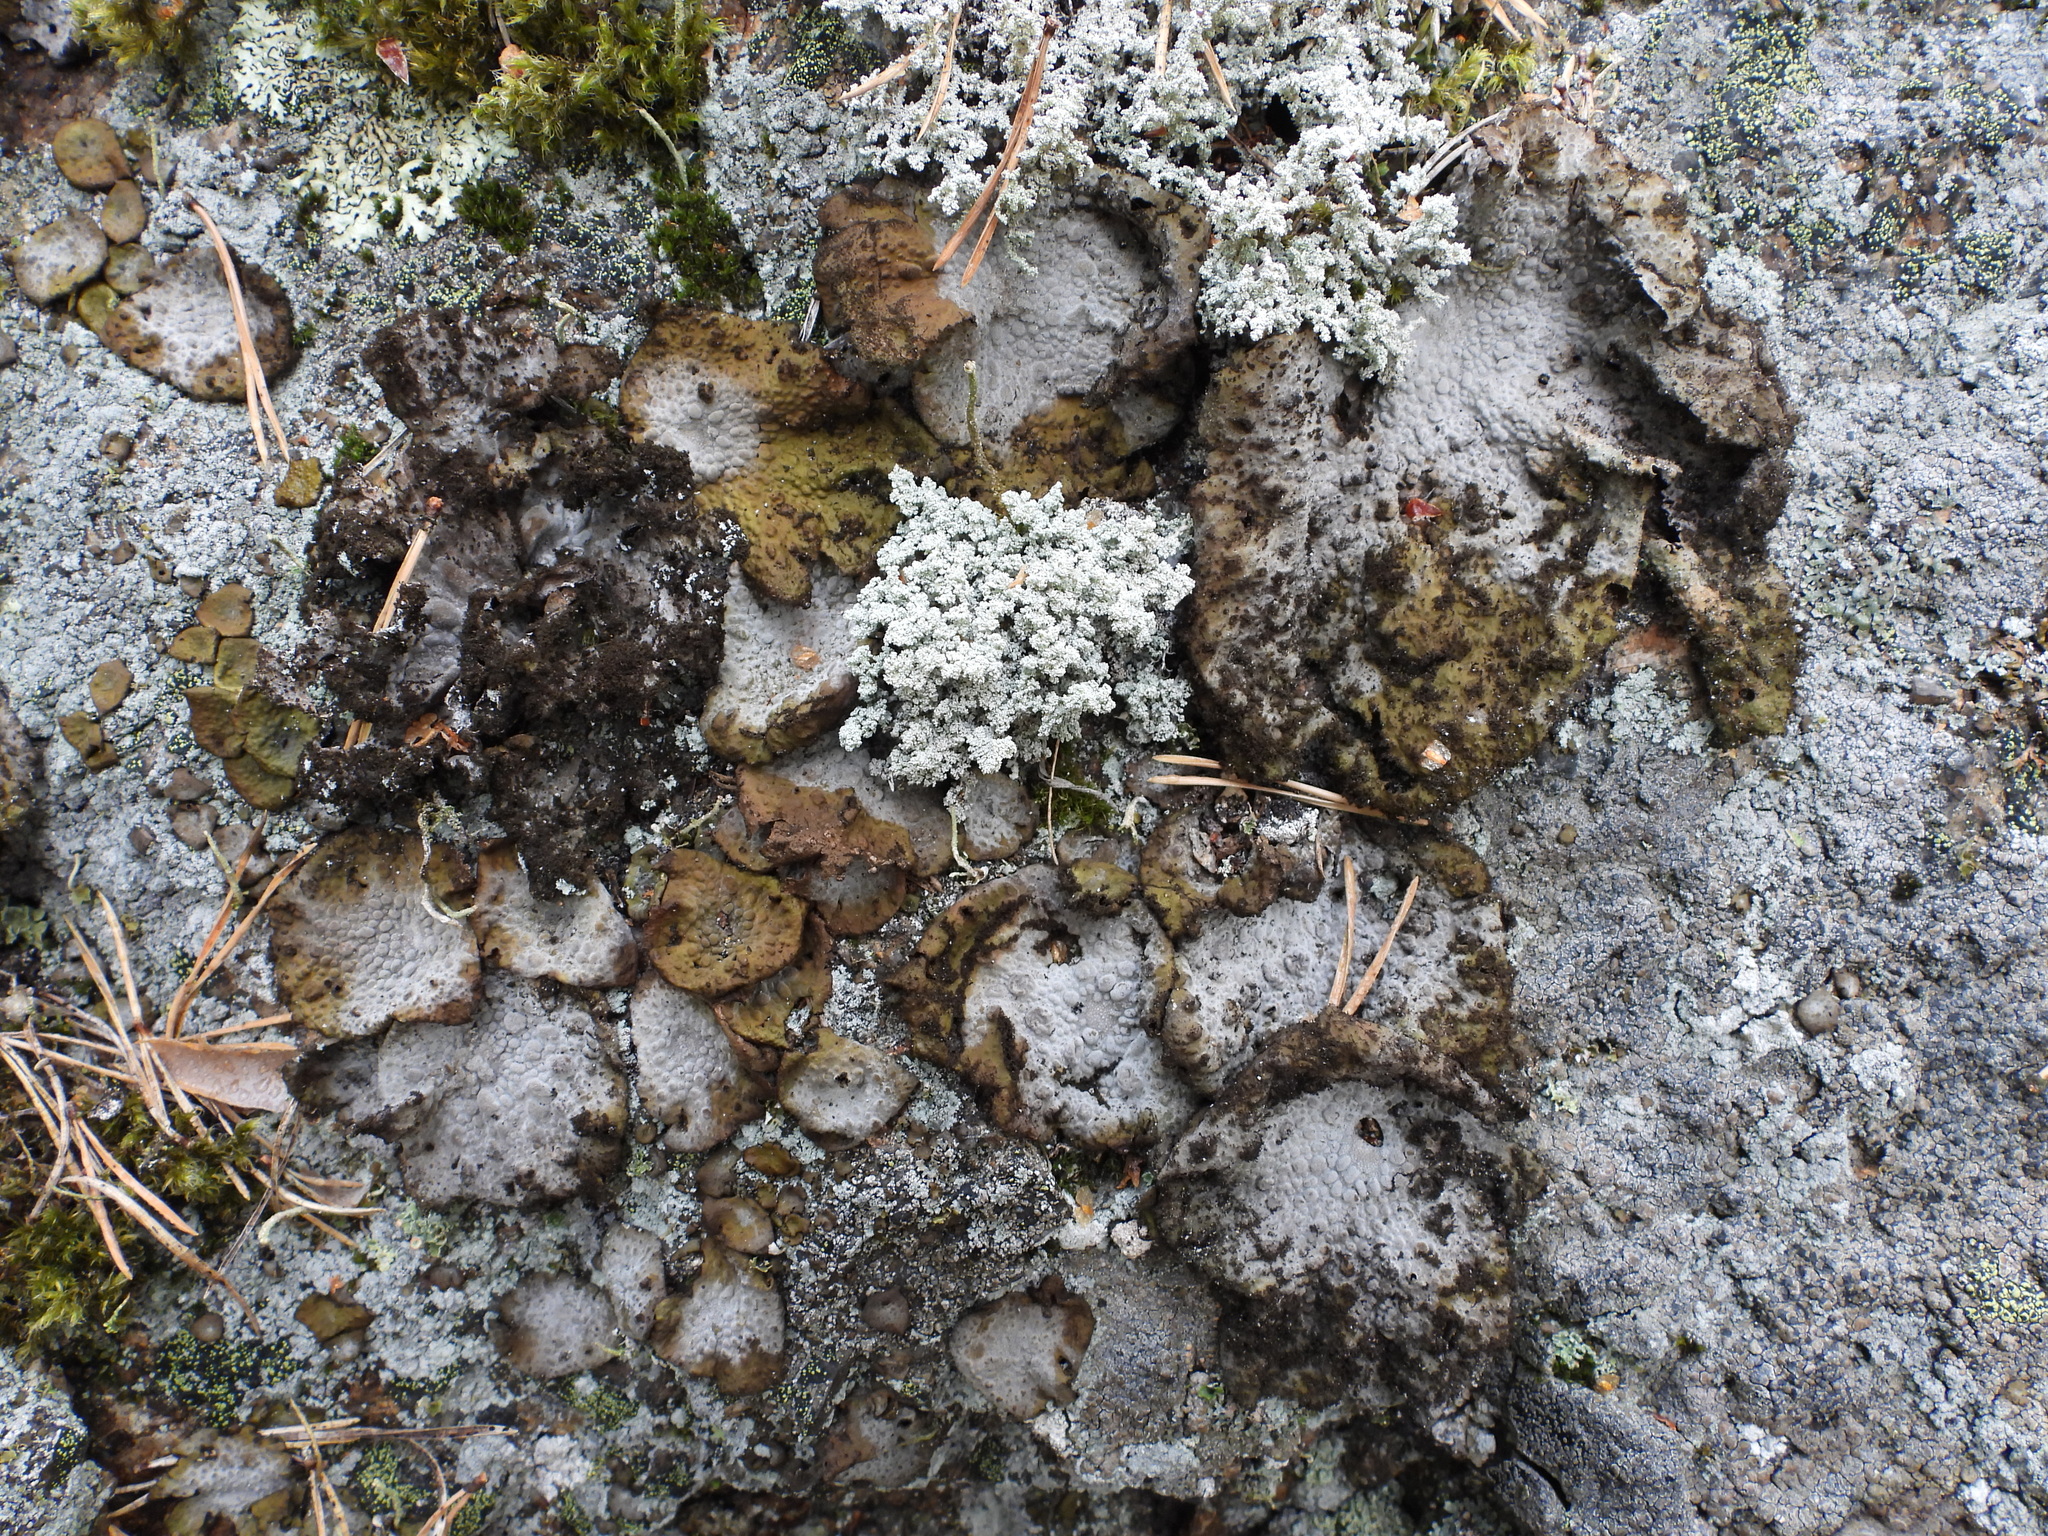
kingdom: Fungi
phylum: Ascomycota
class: Lecanoromycetes
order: Umbilicariales
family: Umbilicariaceae
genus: Lasallia
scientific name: Lasallia pustulata
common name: Blistered toadskin lichen
